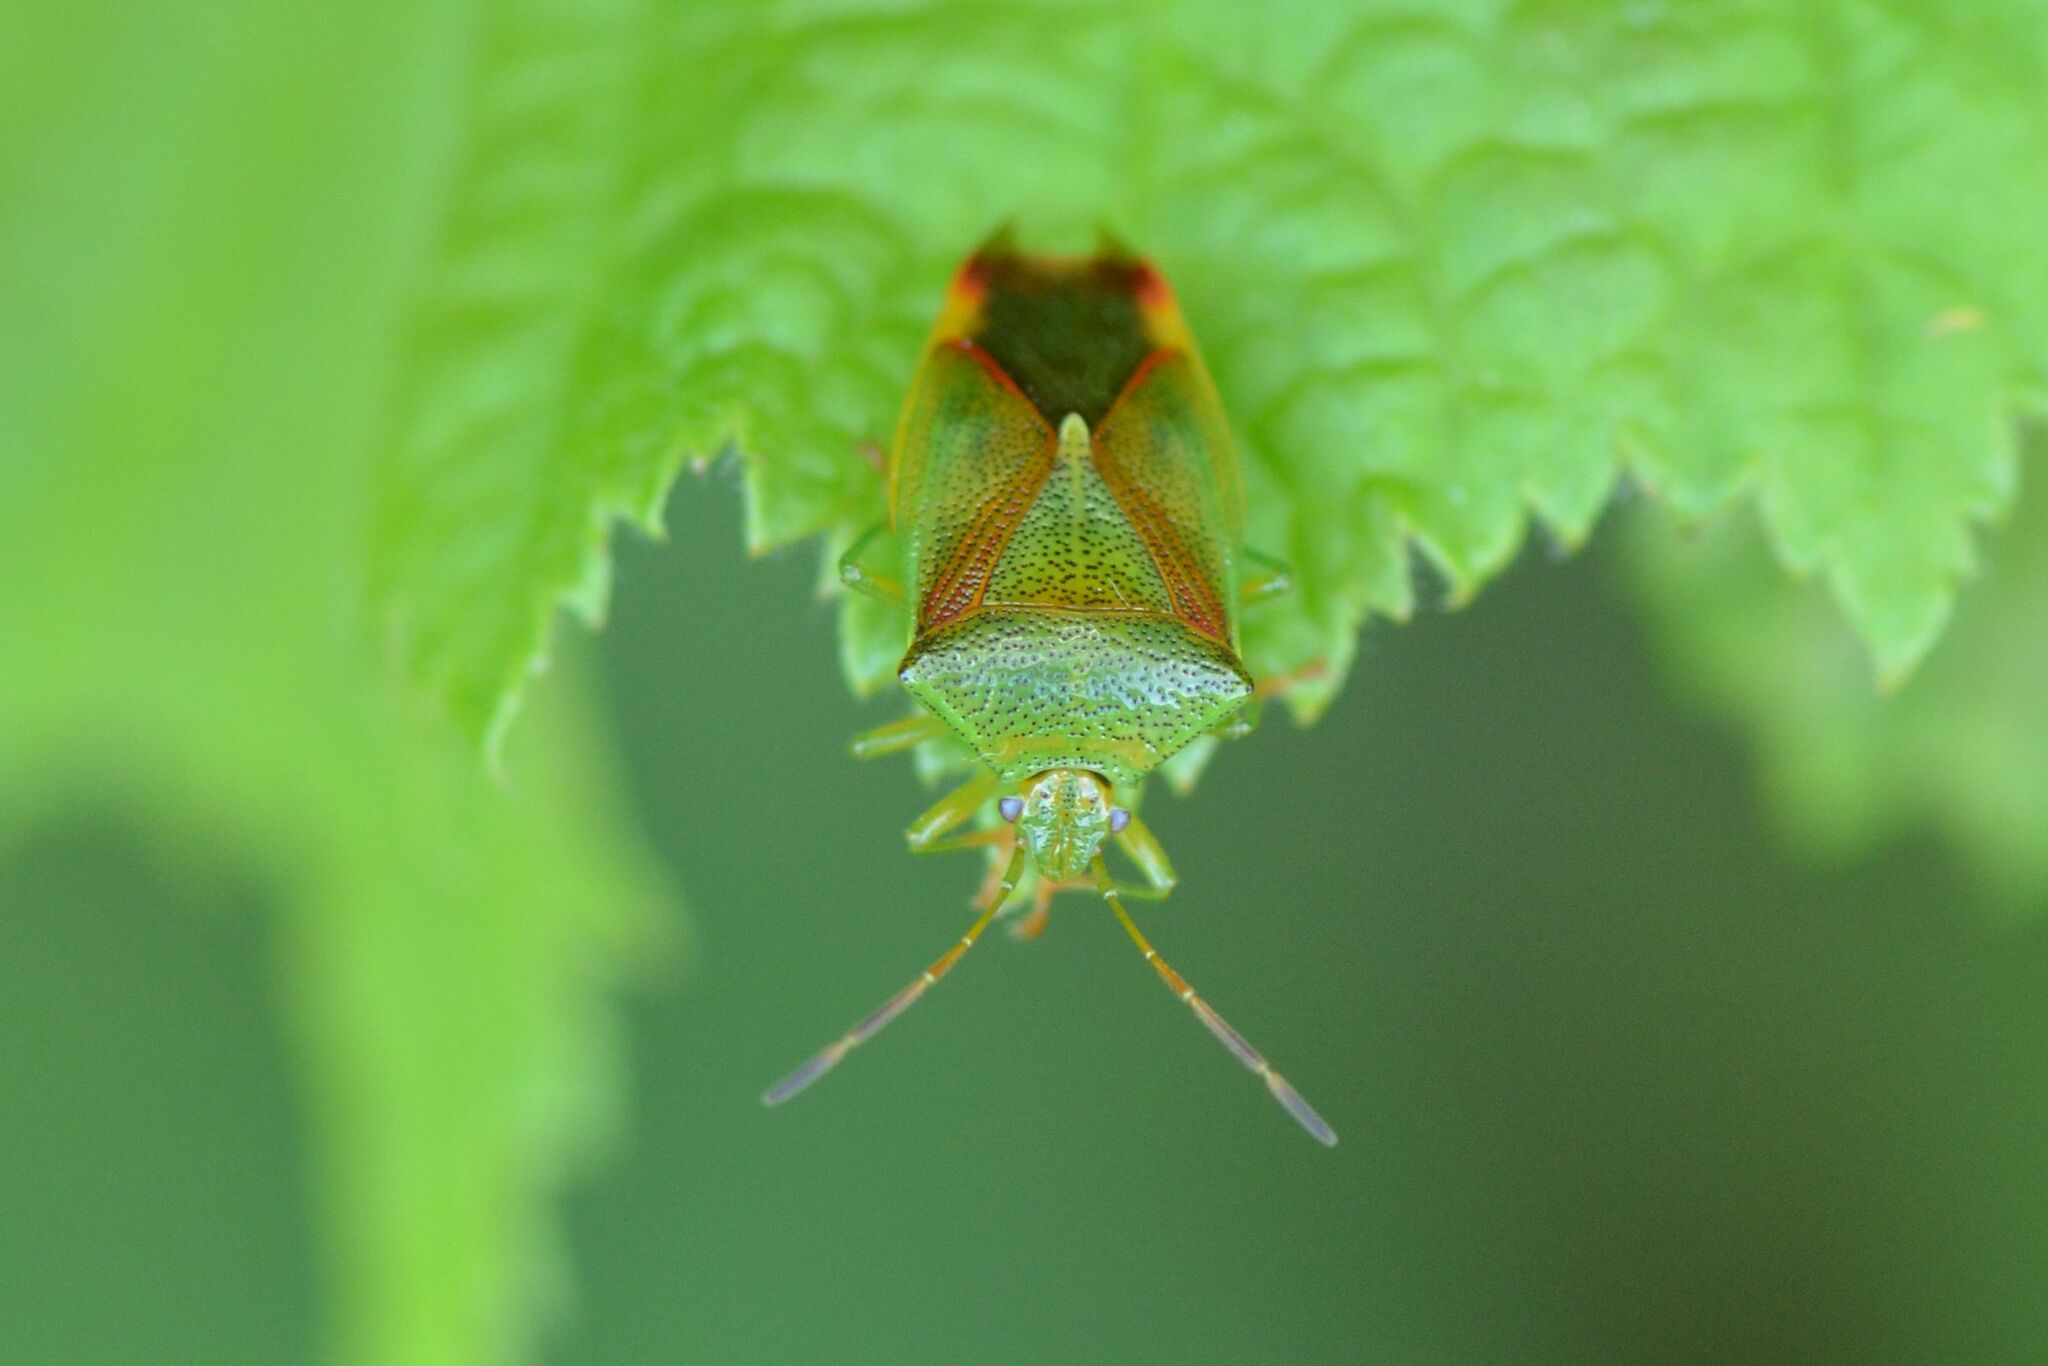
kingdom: Animalia
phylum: Arthropoda
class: Insecta
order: Hemiptera
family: Acanthosomatidae
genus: Elasmostethus
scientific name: Elasmostethus
